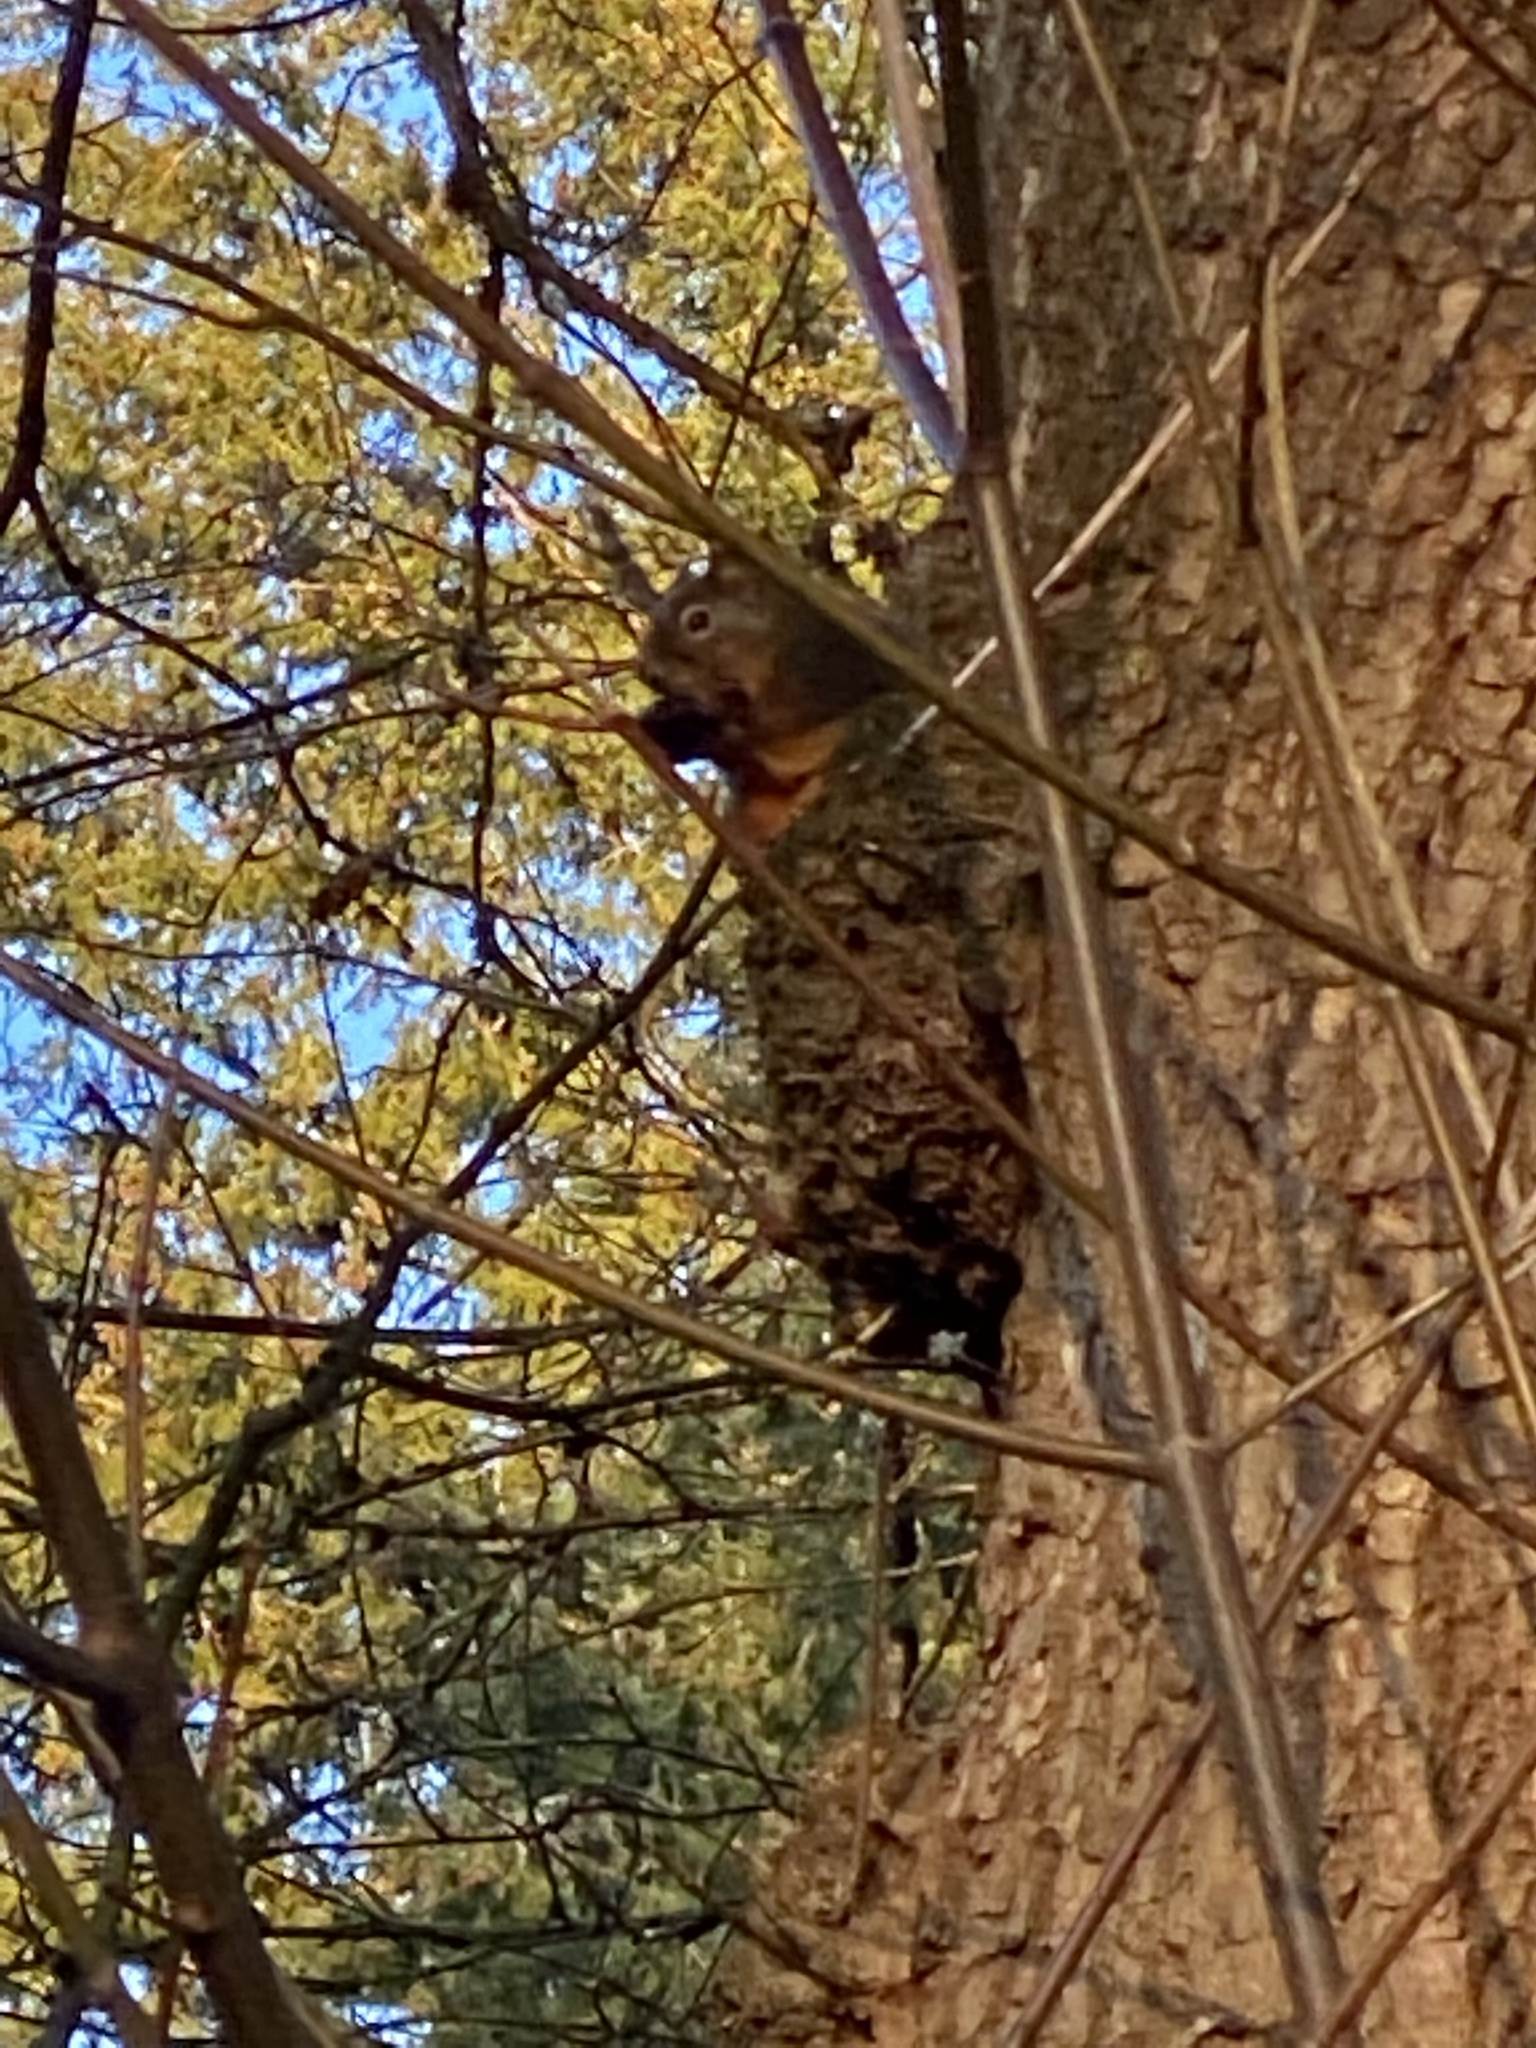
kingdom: Animalia
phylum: Chordata
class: Mammalia
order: Rodentia
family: Sciuridae
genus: Tamiasciurus
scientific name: Tamiasciurus douglasii
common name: Douglas's squirrel
